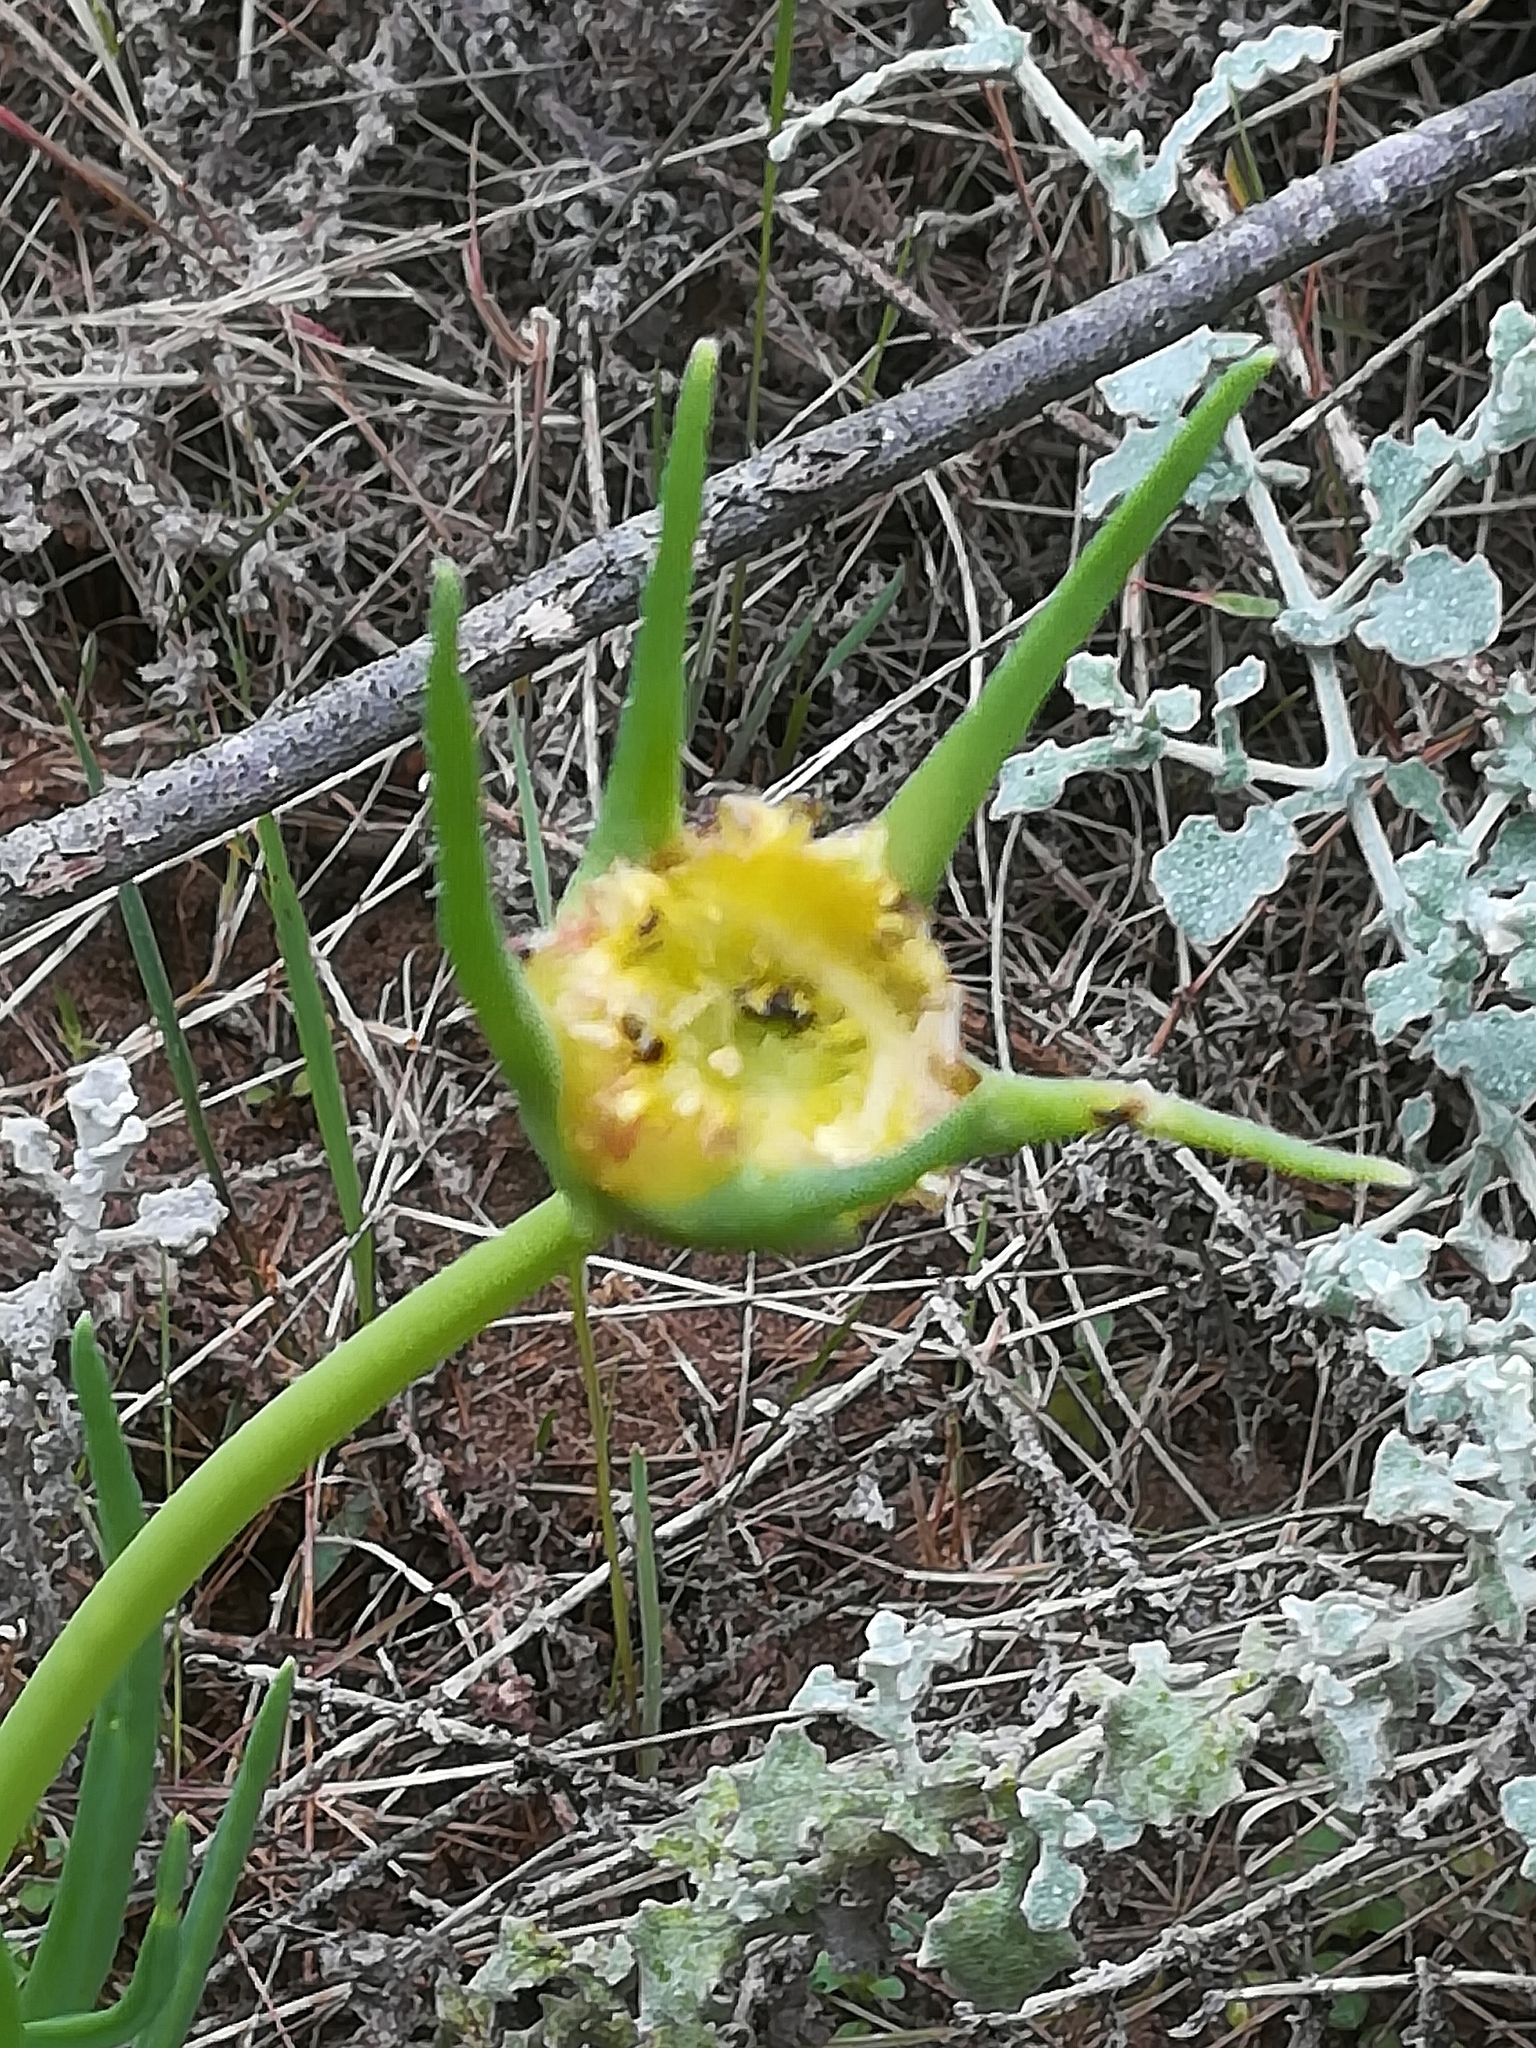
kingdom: Plantae
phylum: Tracheophyta
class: Magnoliopsida
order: Caryophyllales
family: Aizoaceae
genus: Conicosia
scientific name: Conicosia pugioniformis
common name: Narrow-leaved iceplant
